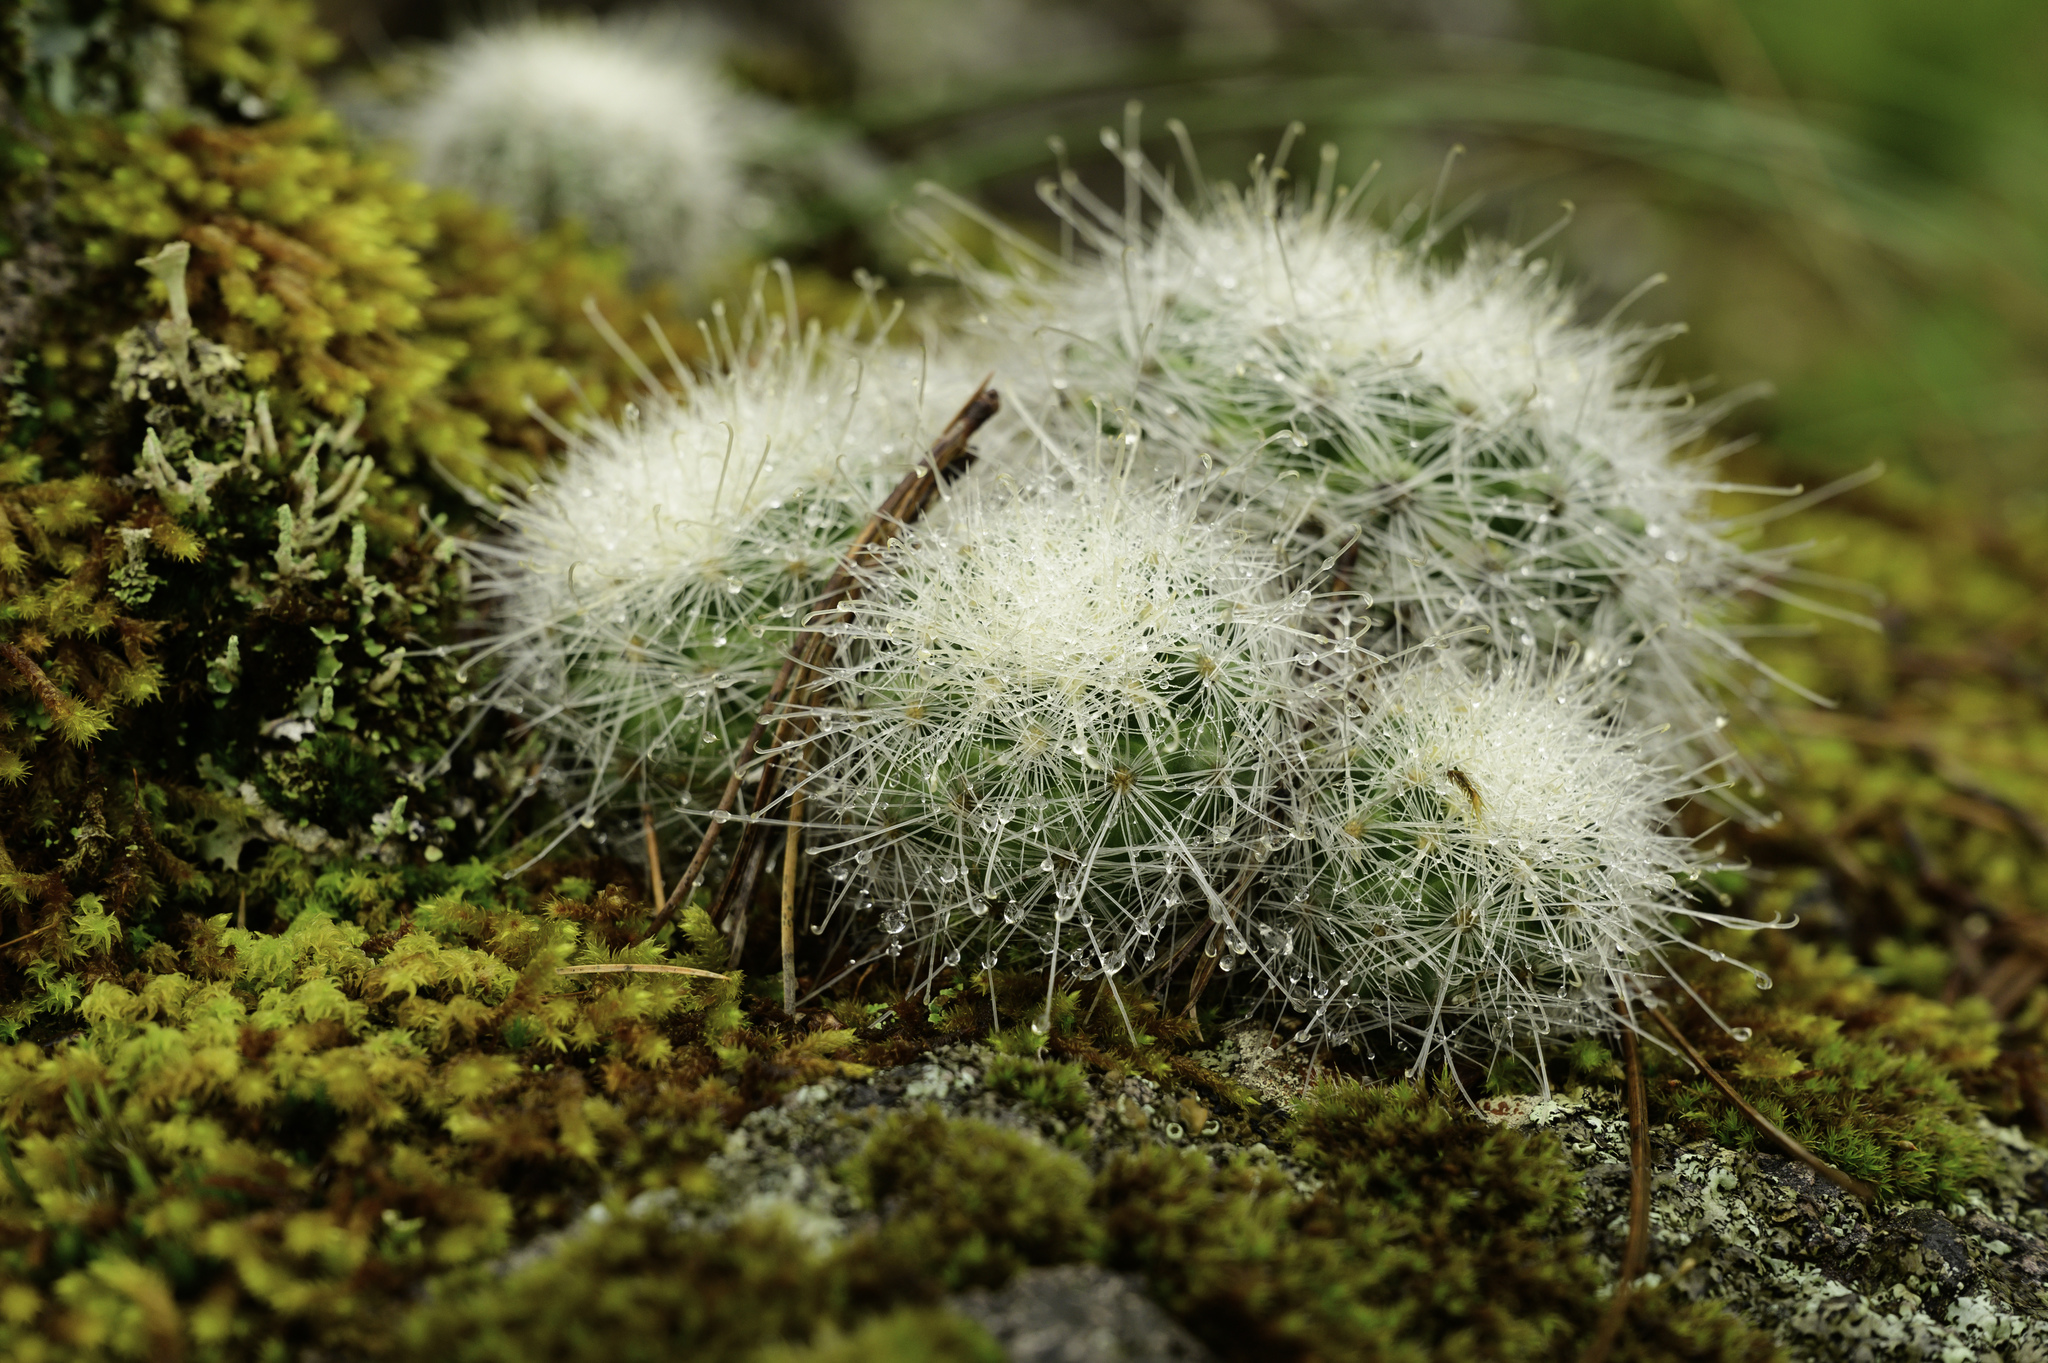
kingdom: Plantae
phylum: Tracheophyta
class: Magnoliopsida
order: Caryophyllales
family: Cactaceae
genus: Mammillaria
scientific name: Mammillaria senilis
